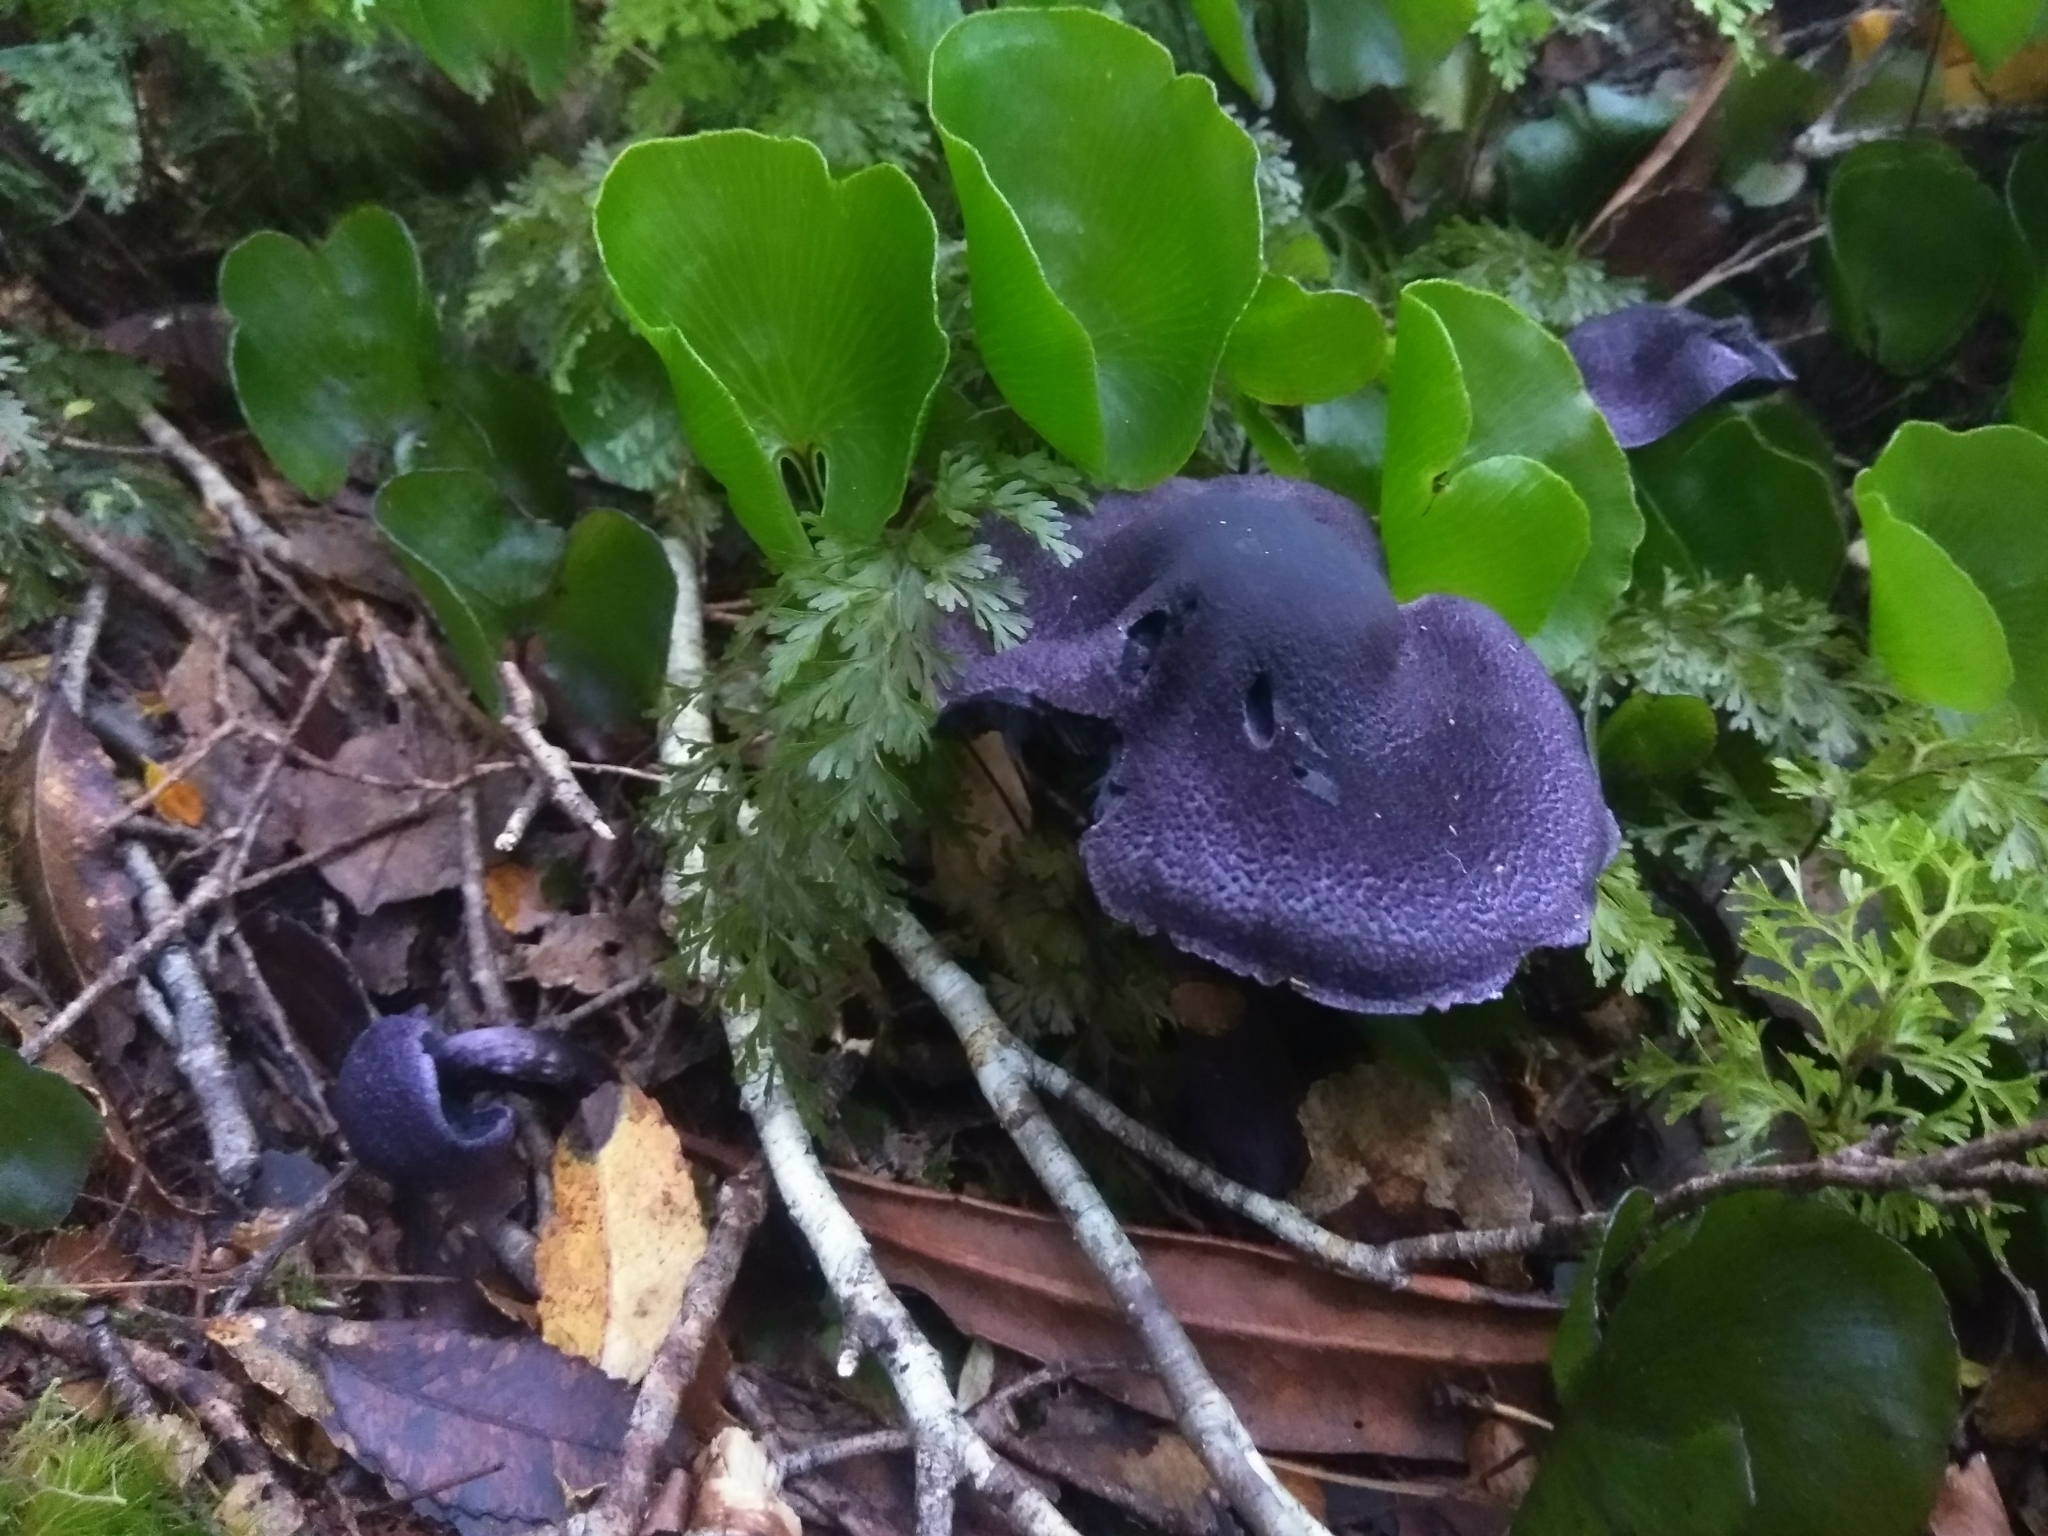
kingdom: Fungi
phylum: Basidiomycota
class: Agaricomycetes
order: Agaricales
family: Cortinariaceae
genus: Cortinarius
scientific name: Cortinarius carneipallidus
